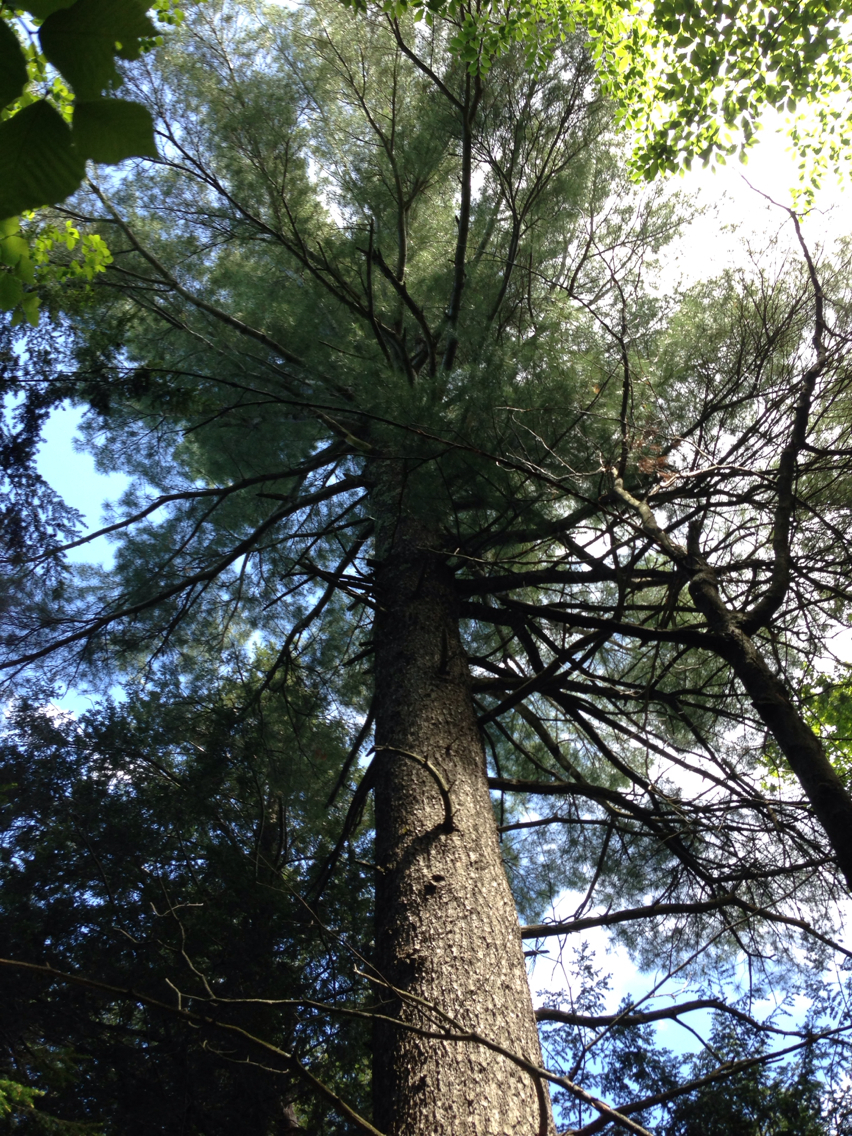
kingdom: Plantae
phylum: Tracheophyta
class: Pinopsida
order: Pinales
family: Pinaceae
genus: Pinus
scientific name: Pinus strobus
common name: Weymouth pine
